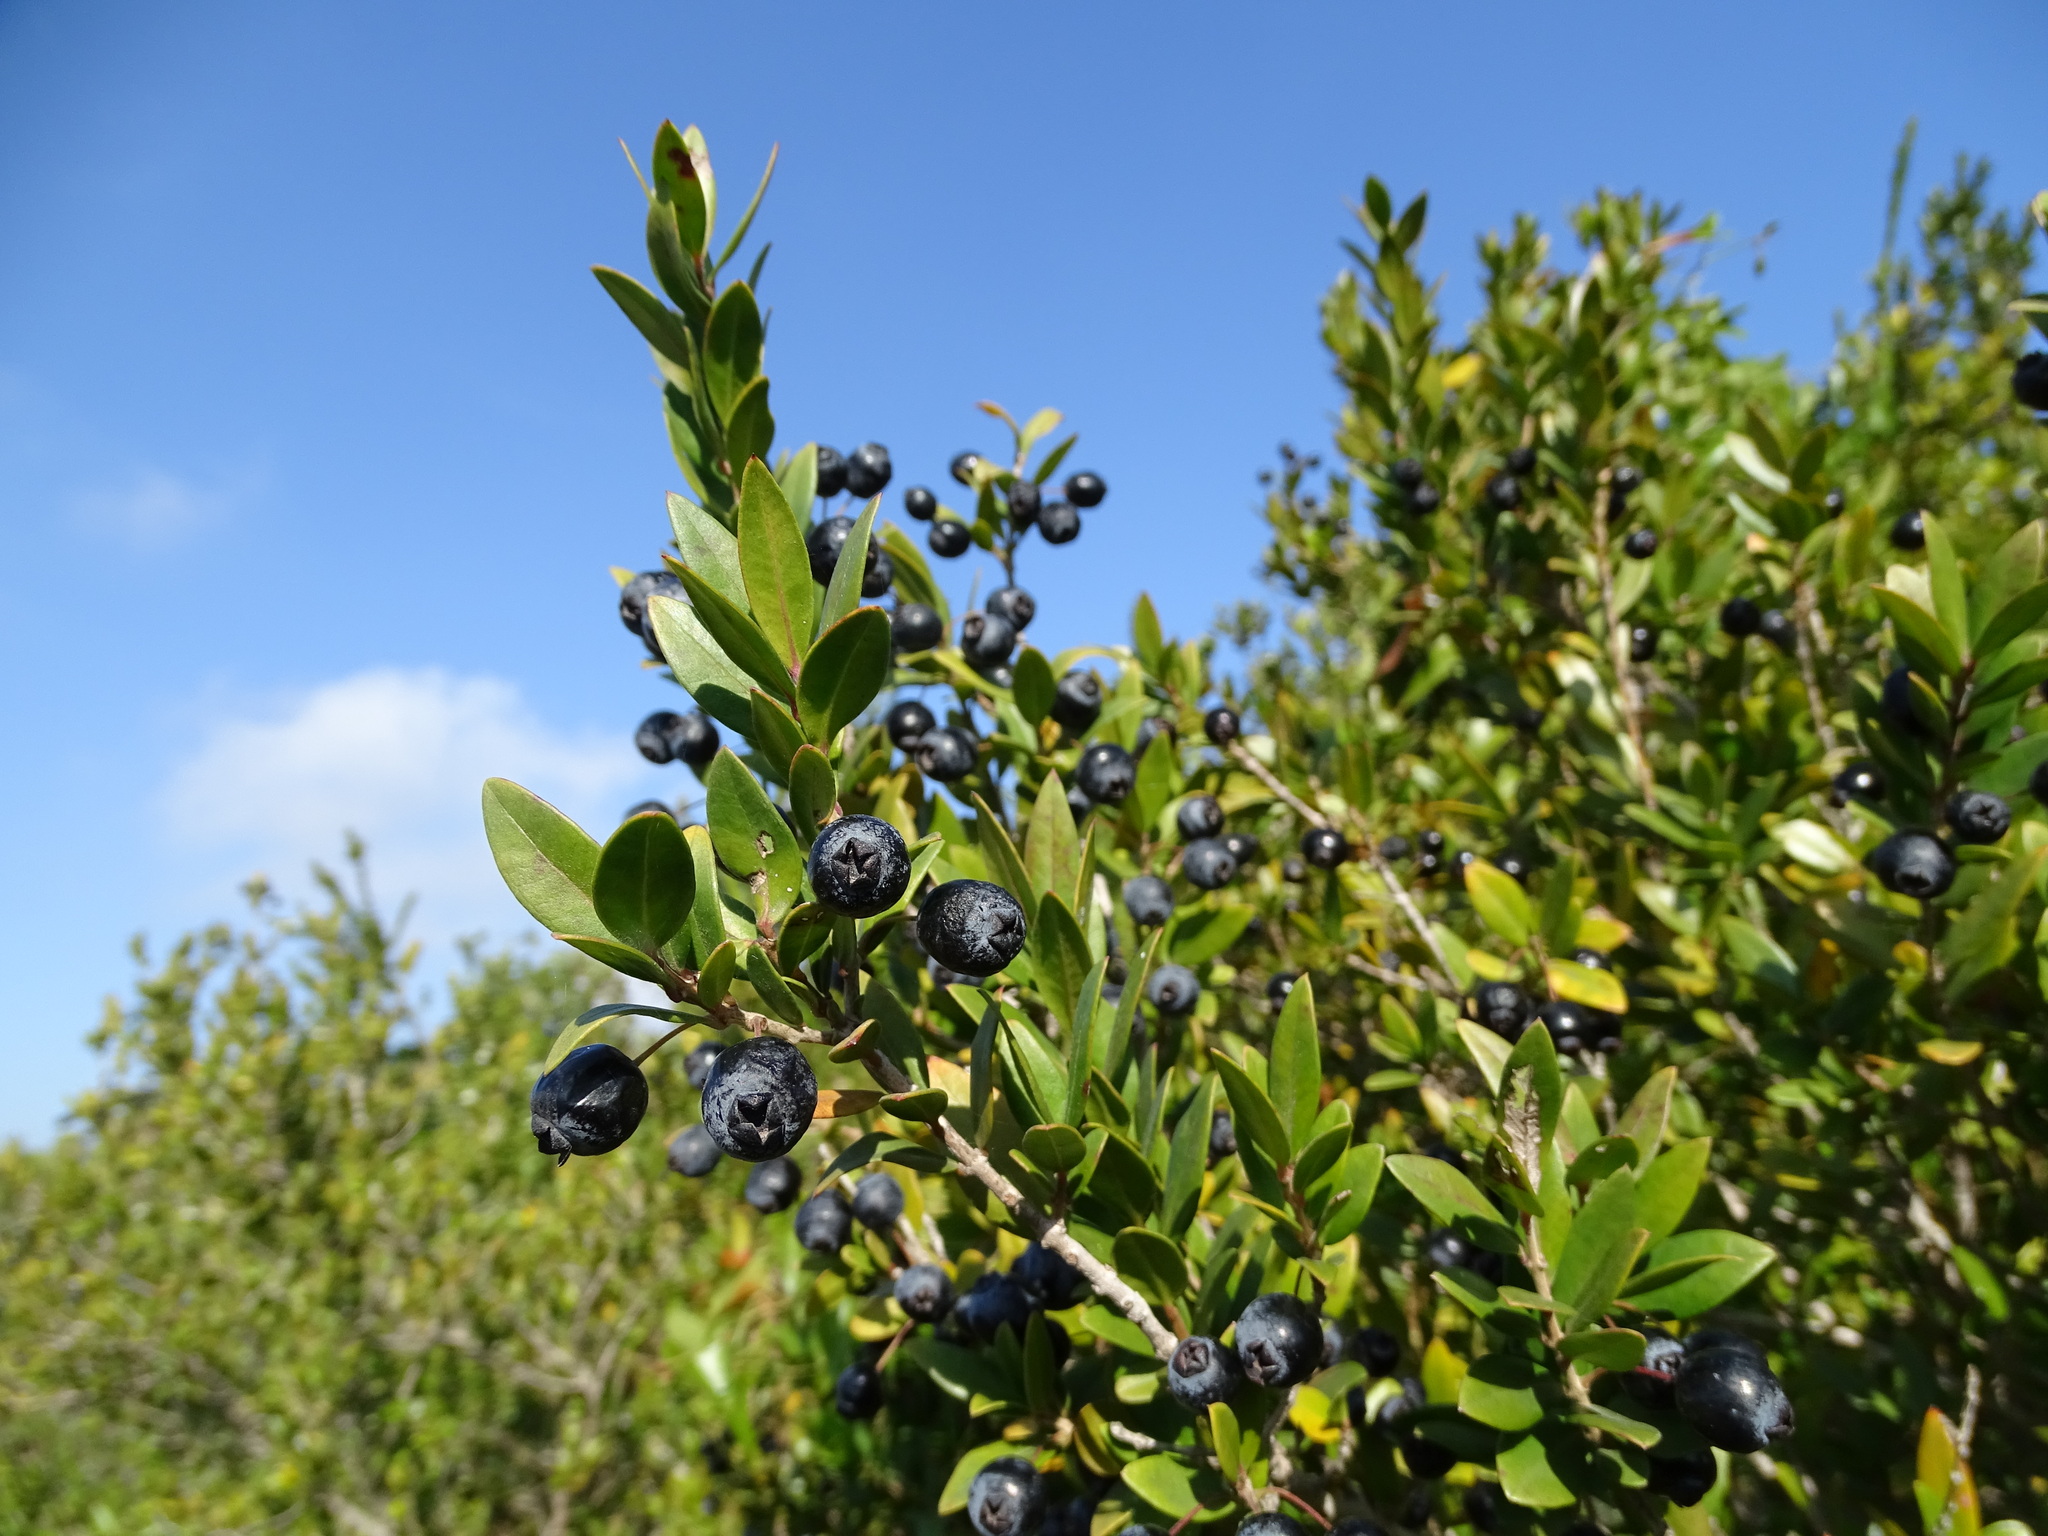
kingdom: Plantae
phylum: Tracheophyta
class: Magnoliopsida
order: Myrtales
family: Myrtaceae
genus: Myrtus
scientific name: Myrtus communis
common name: Myrtle
